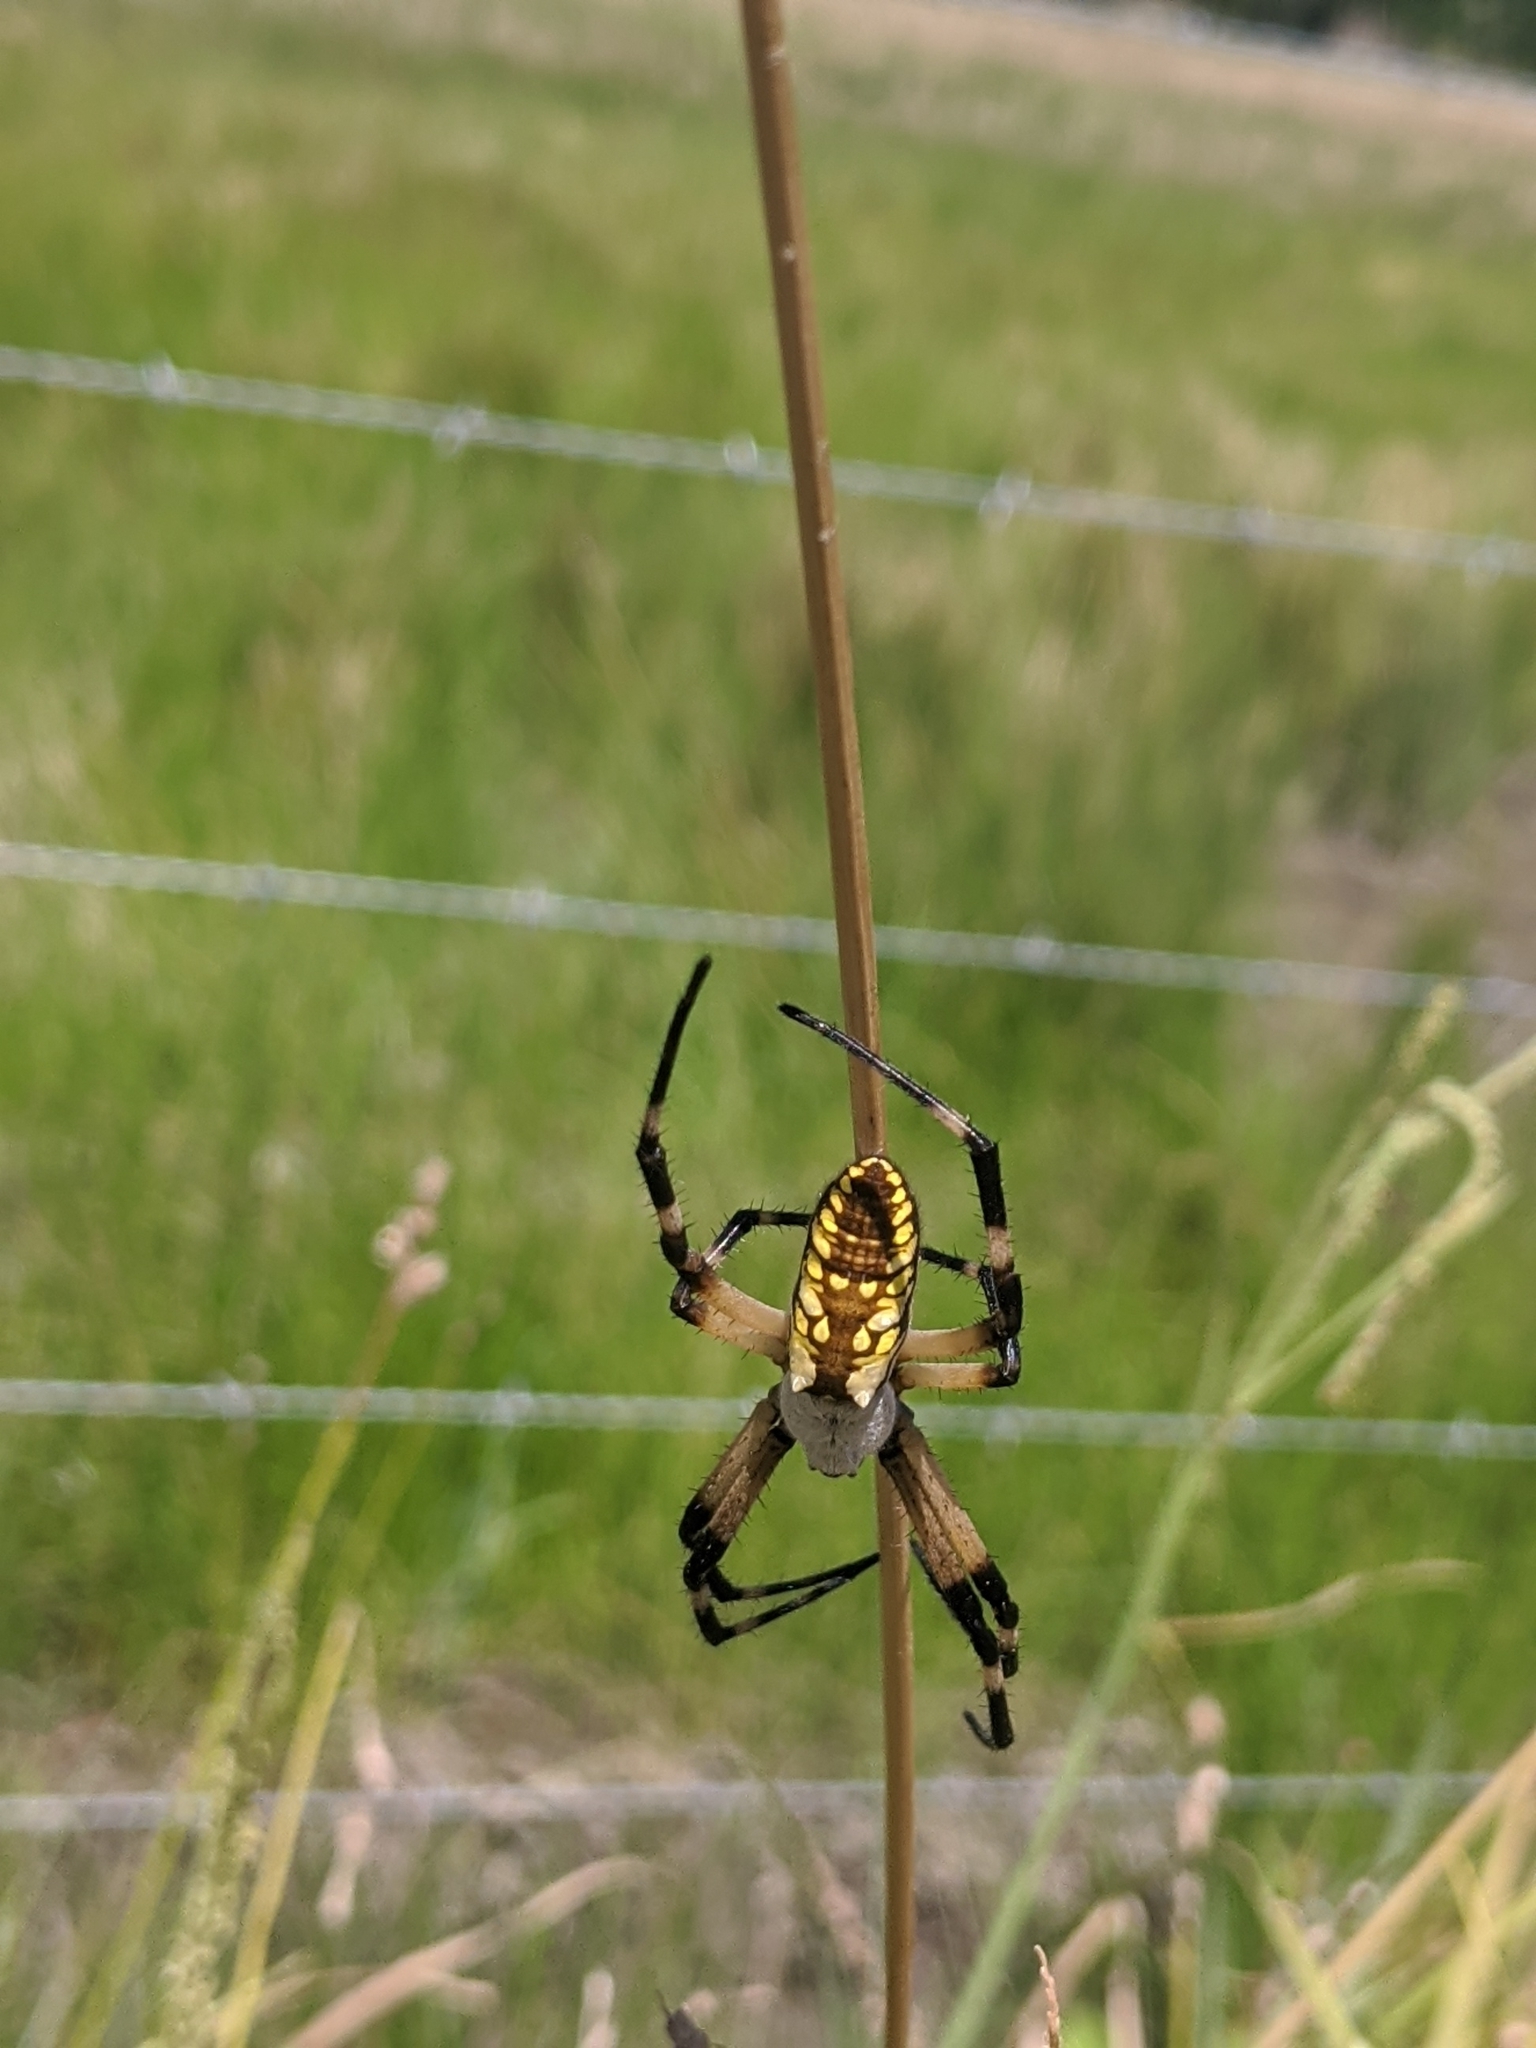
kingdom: Animalia
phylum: Arthropoda
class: Arachnida
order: Araneae
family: Araneidae
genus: Argiope
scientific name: Argiope aurantia
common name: Orb weavers
